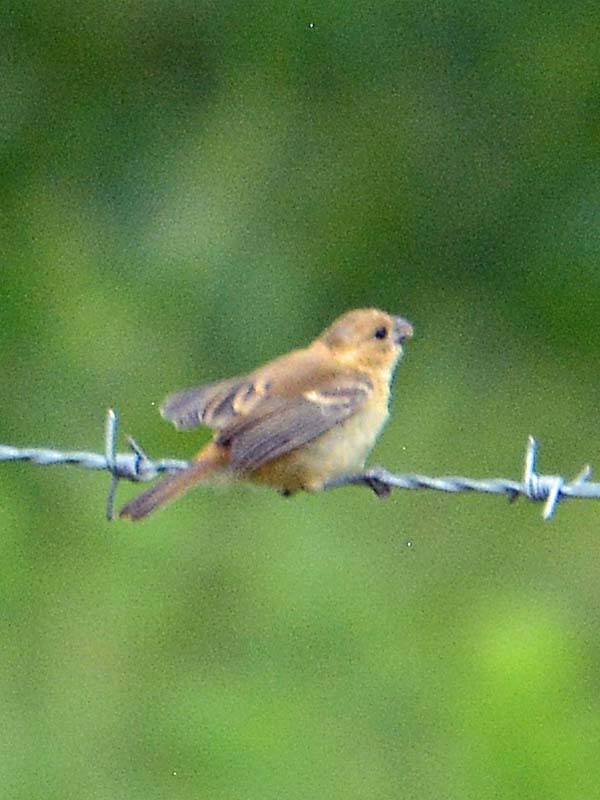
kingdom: Animalia
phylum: Chordata
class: Aves
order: Passeriformes
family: Thraupidae
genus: Sporophila
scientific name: Sporophila morelleti
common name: Morelet's seedeater
